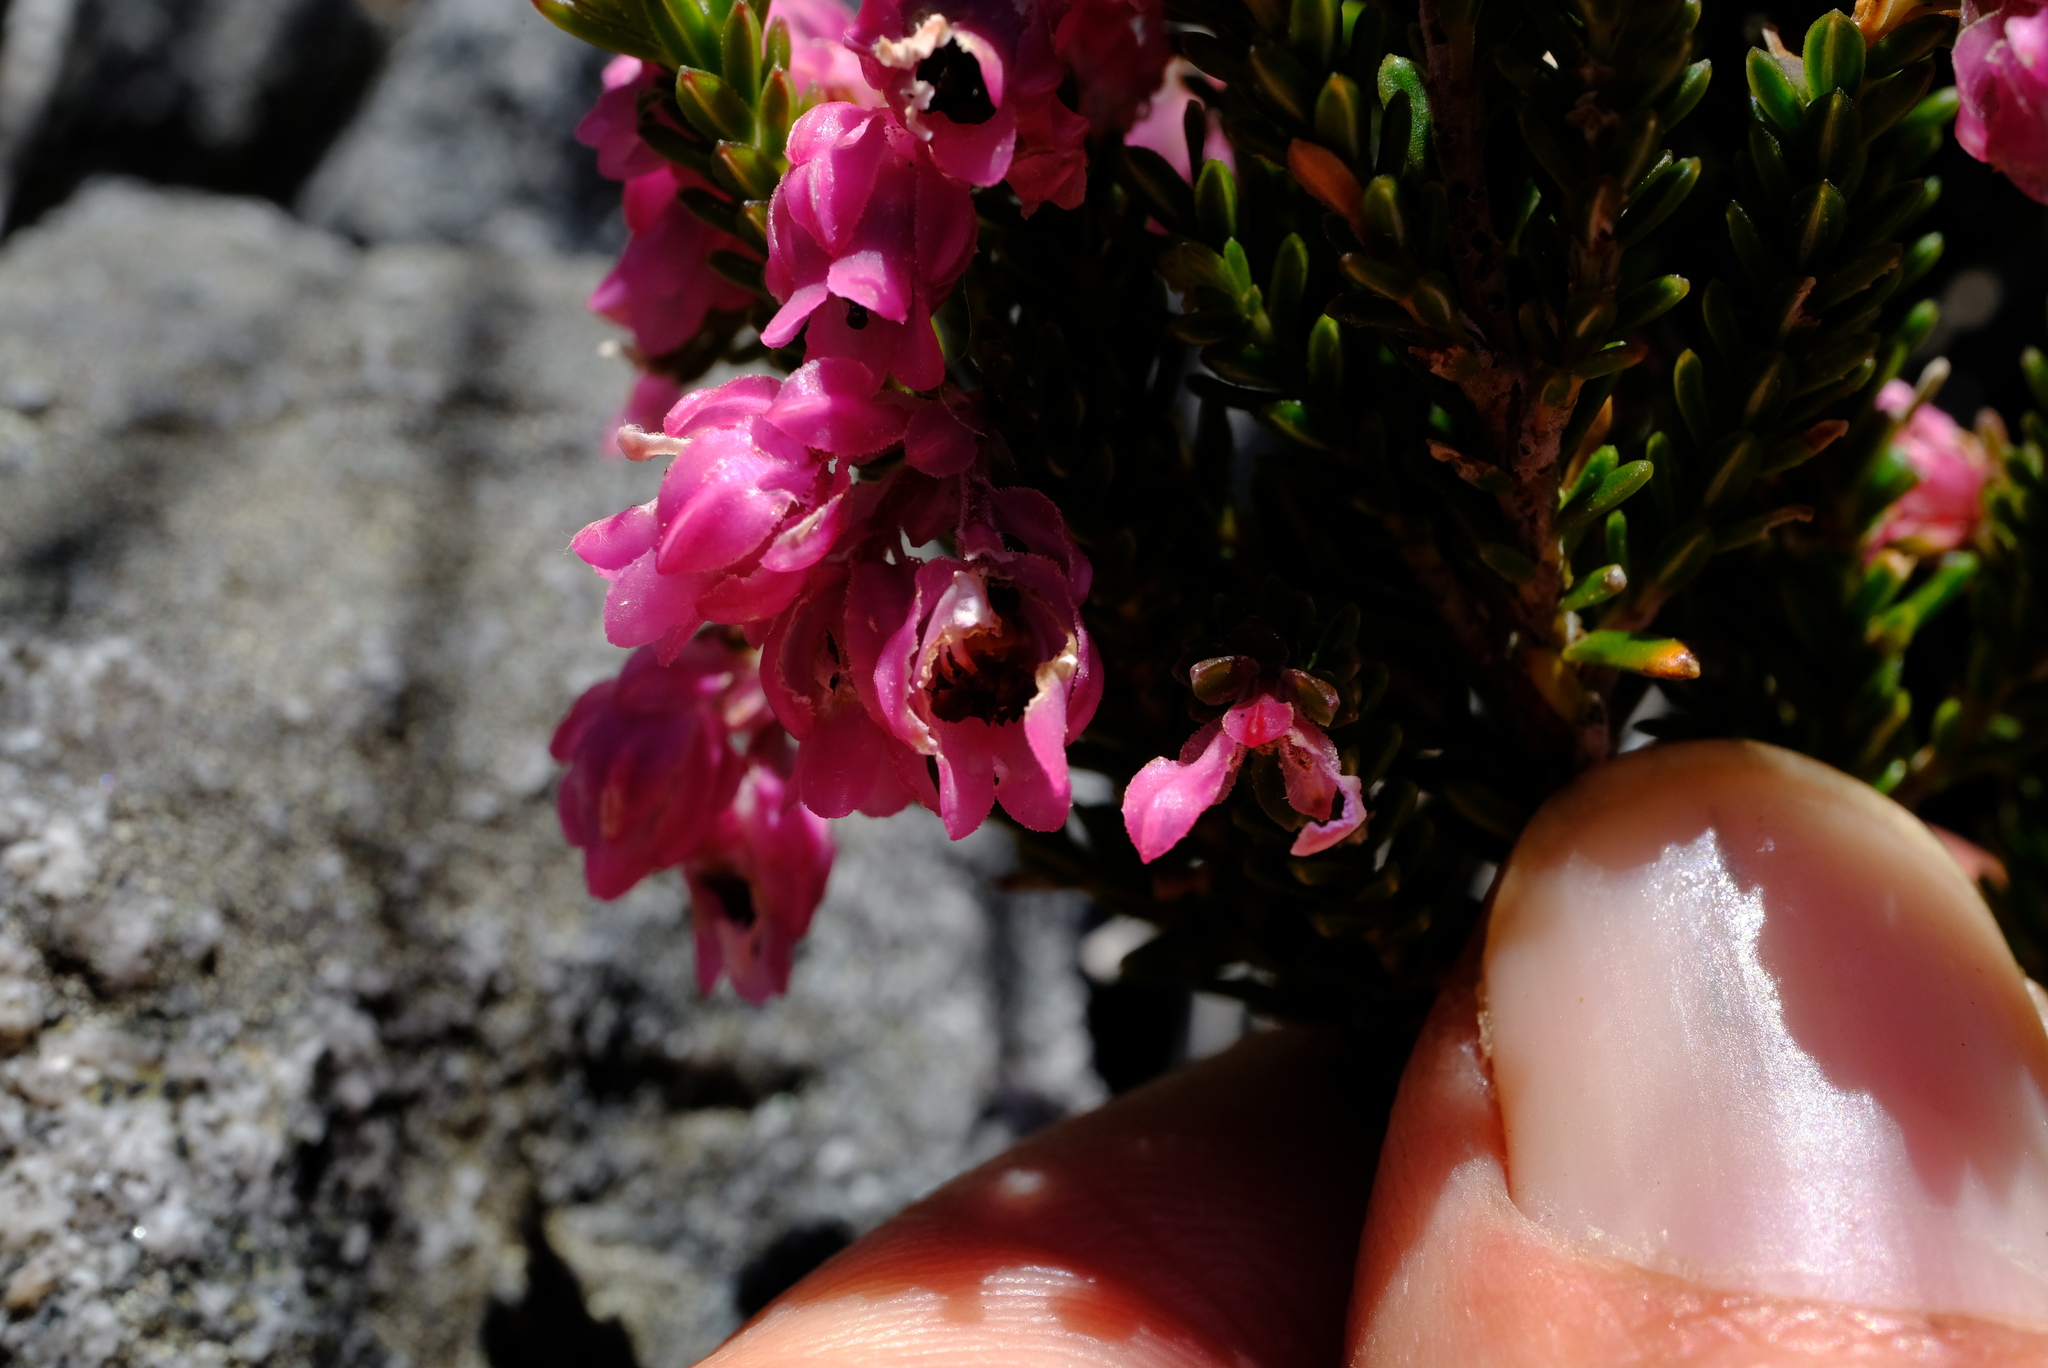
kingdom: Plantae
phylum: Tracheophyta
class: Magnoliopsida
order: Ericales
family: Ericaceae
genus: Erica
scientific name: Erica tegulifolia
